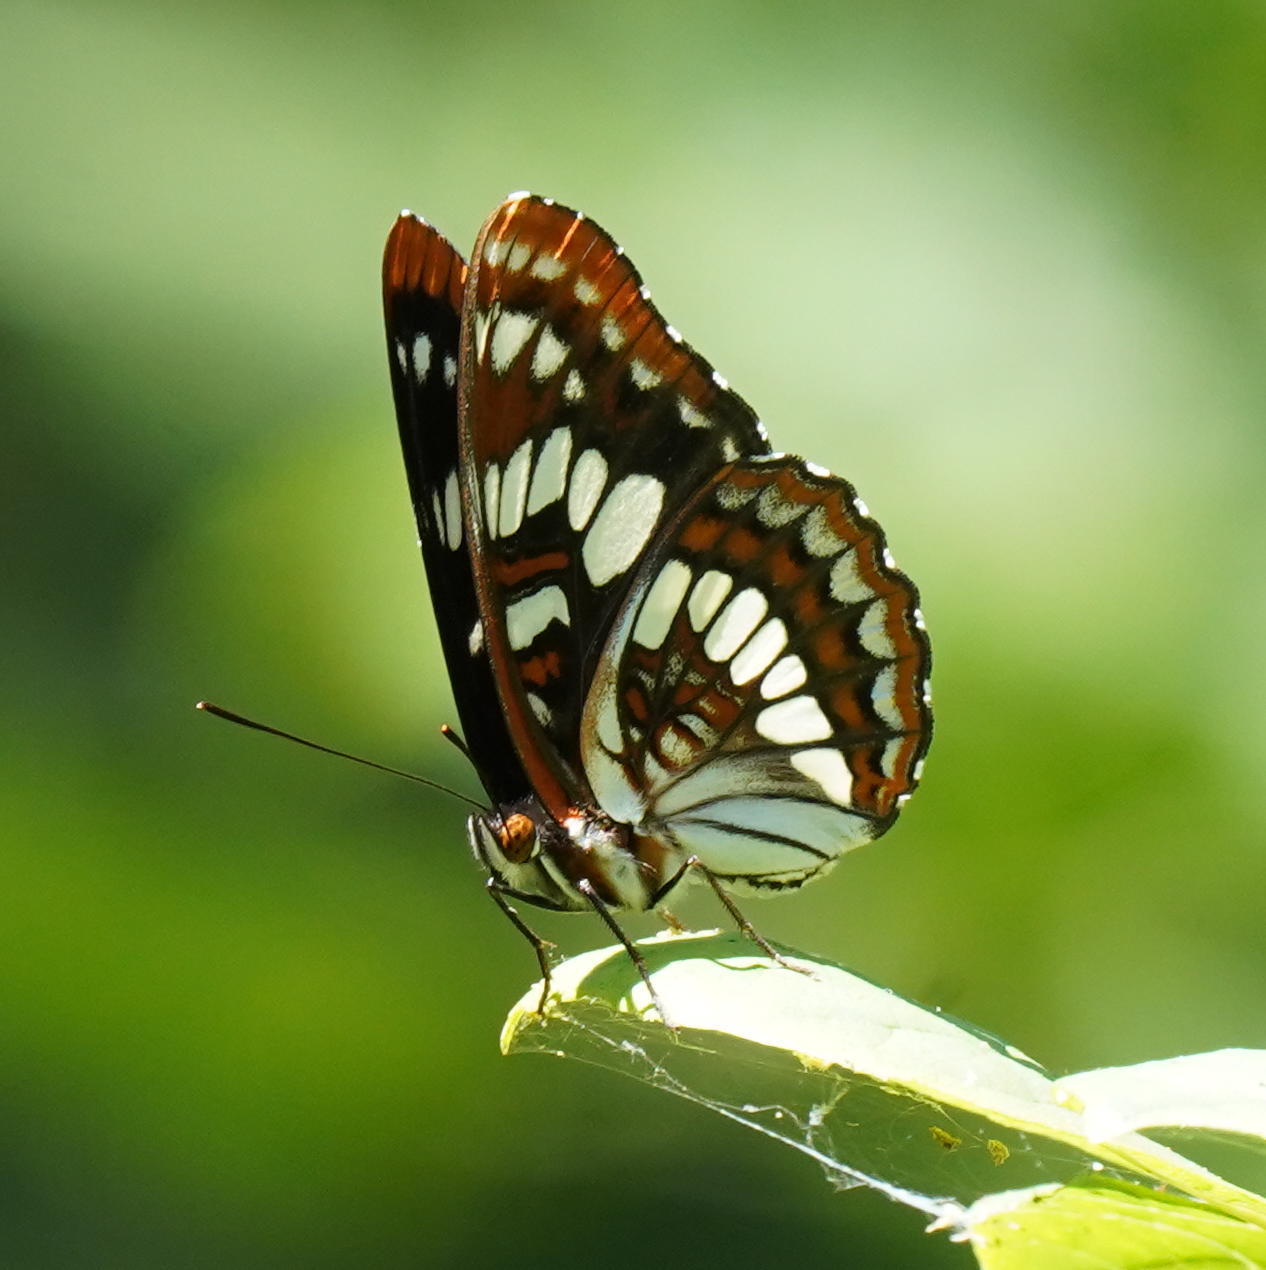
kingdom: Animalia
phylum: Arthropoda
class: Insecta
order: Lepidoptera
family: Nymphalidae
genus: Limenitis
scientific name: Limenitis lorquini
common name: Lorquin's admiral
